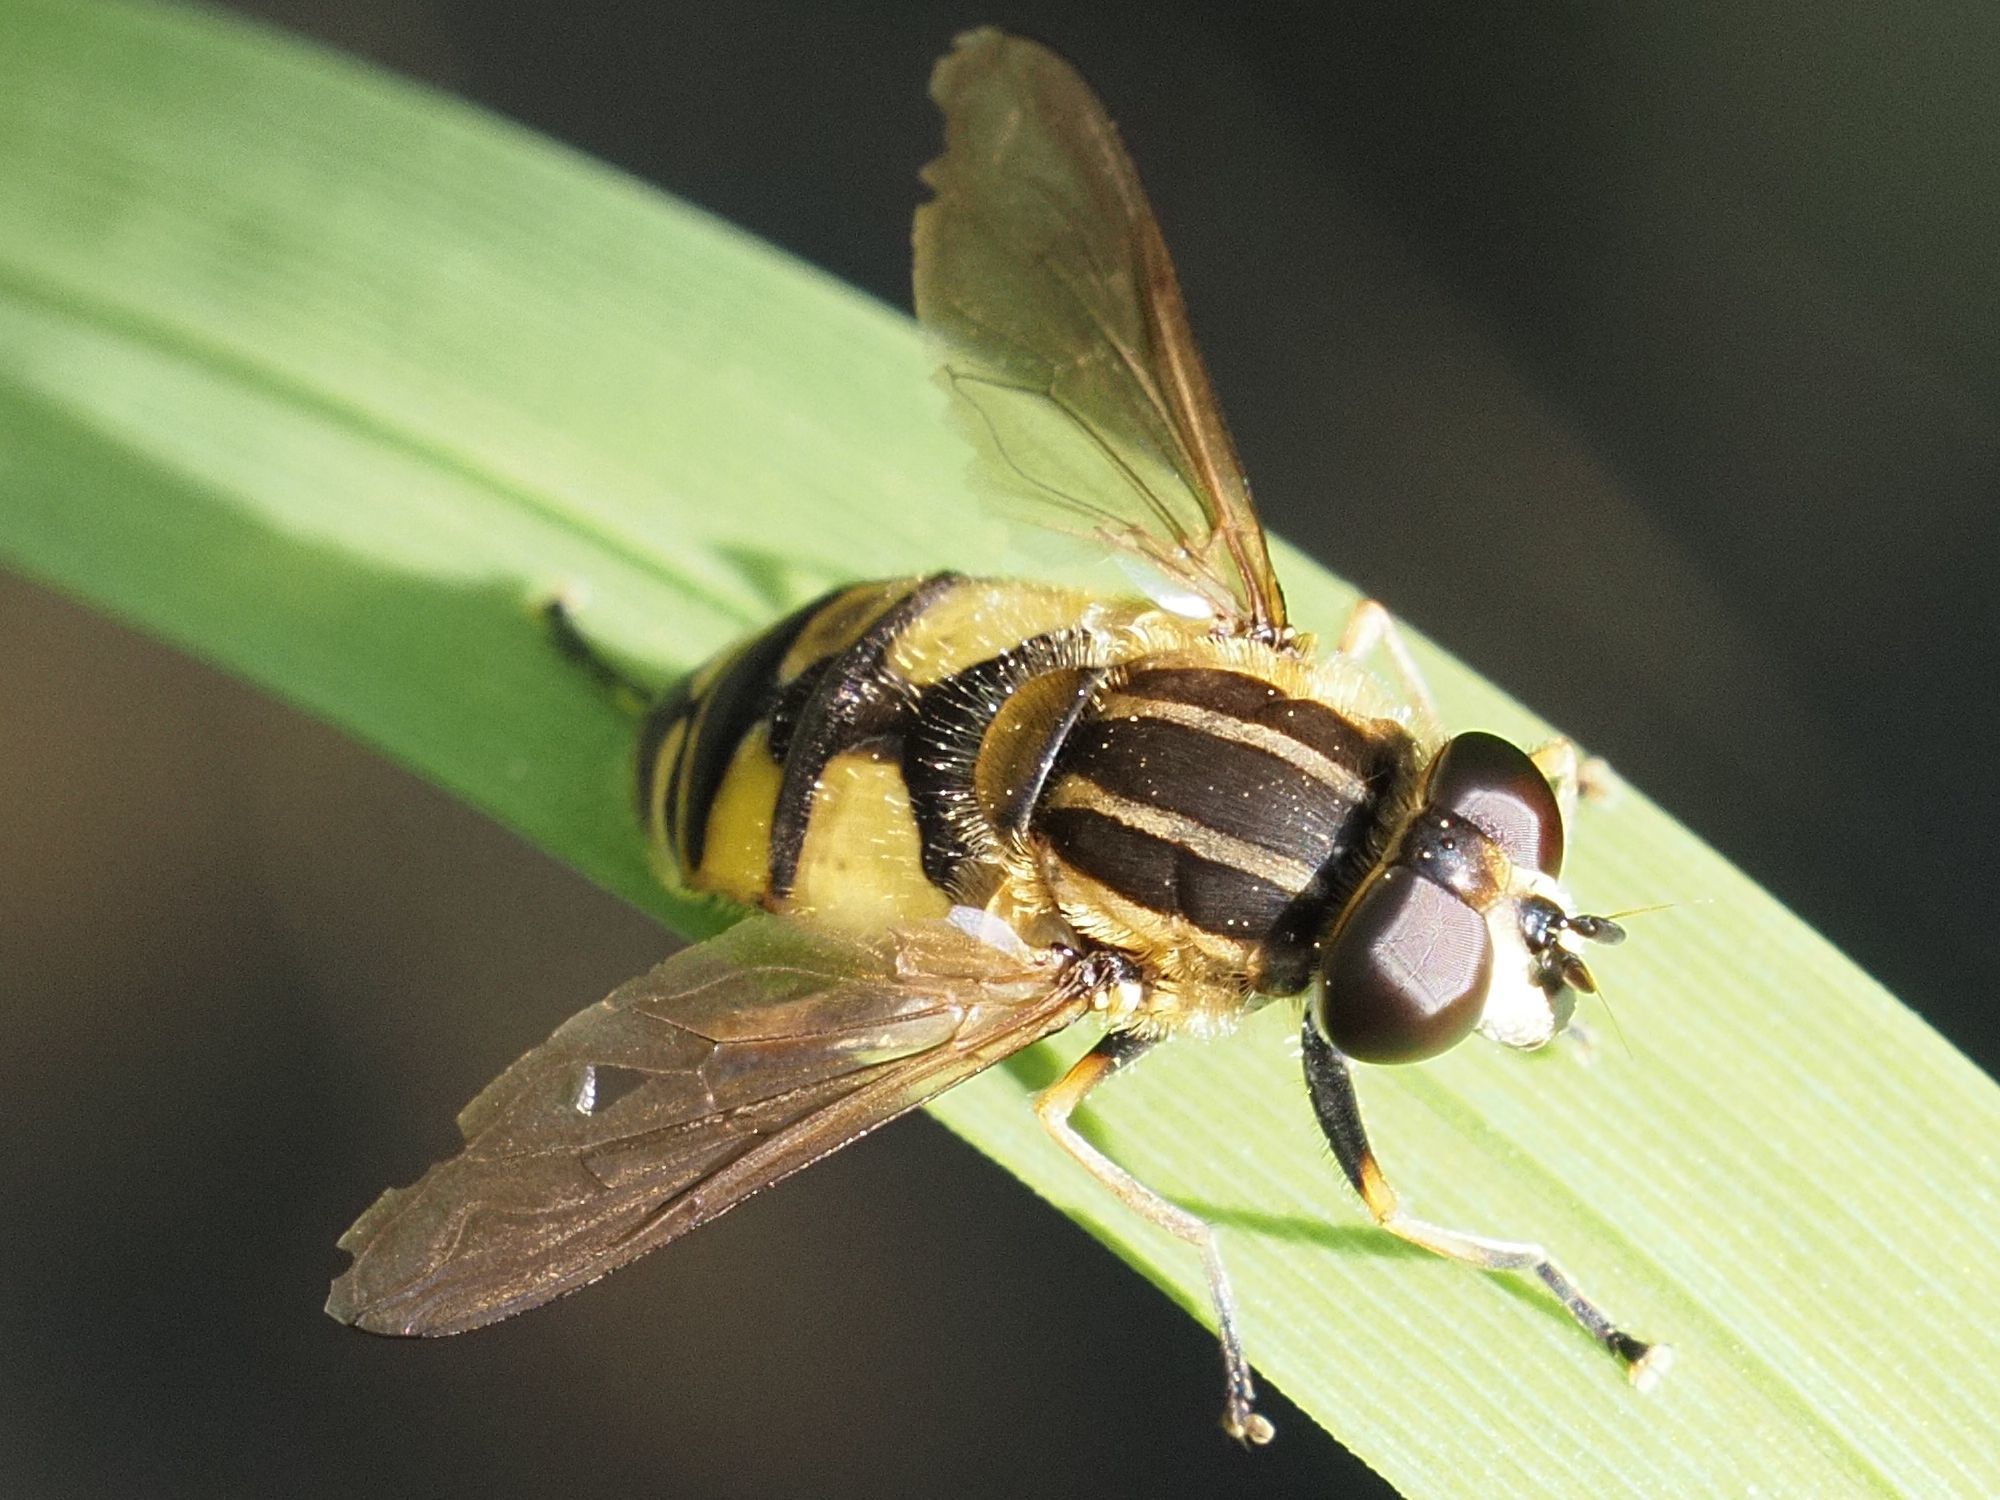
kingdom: Animalia
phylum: Arthropoda
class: Insecta
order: Diptera
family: Syrphidae
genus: Helophilus
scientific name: Helophilus pendulus
